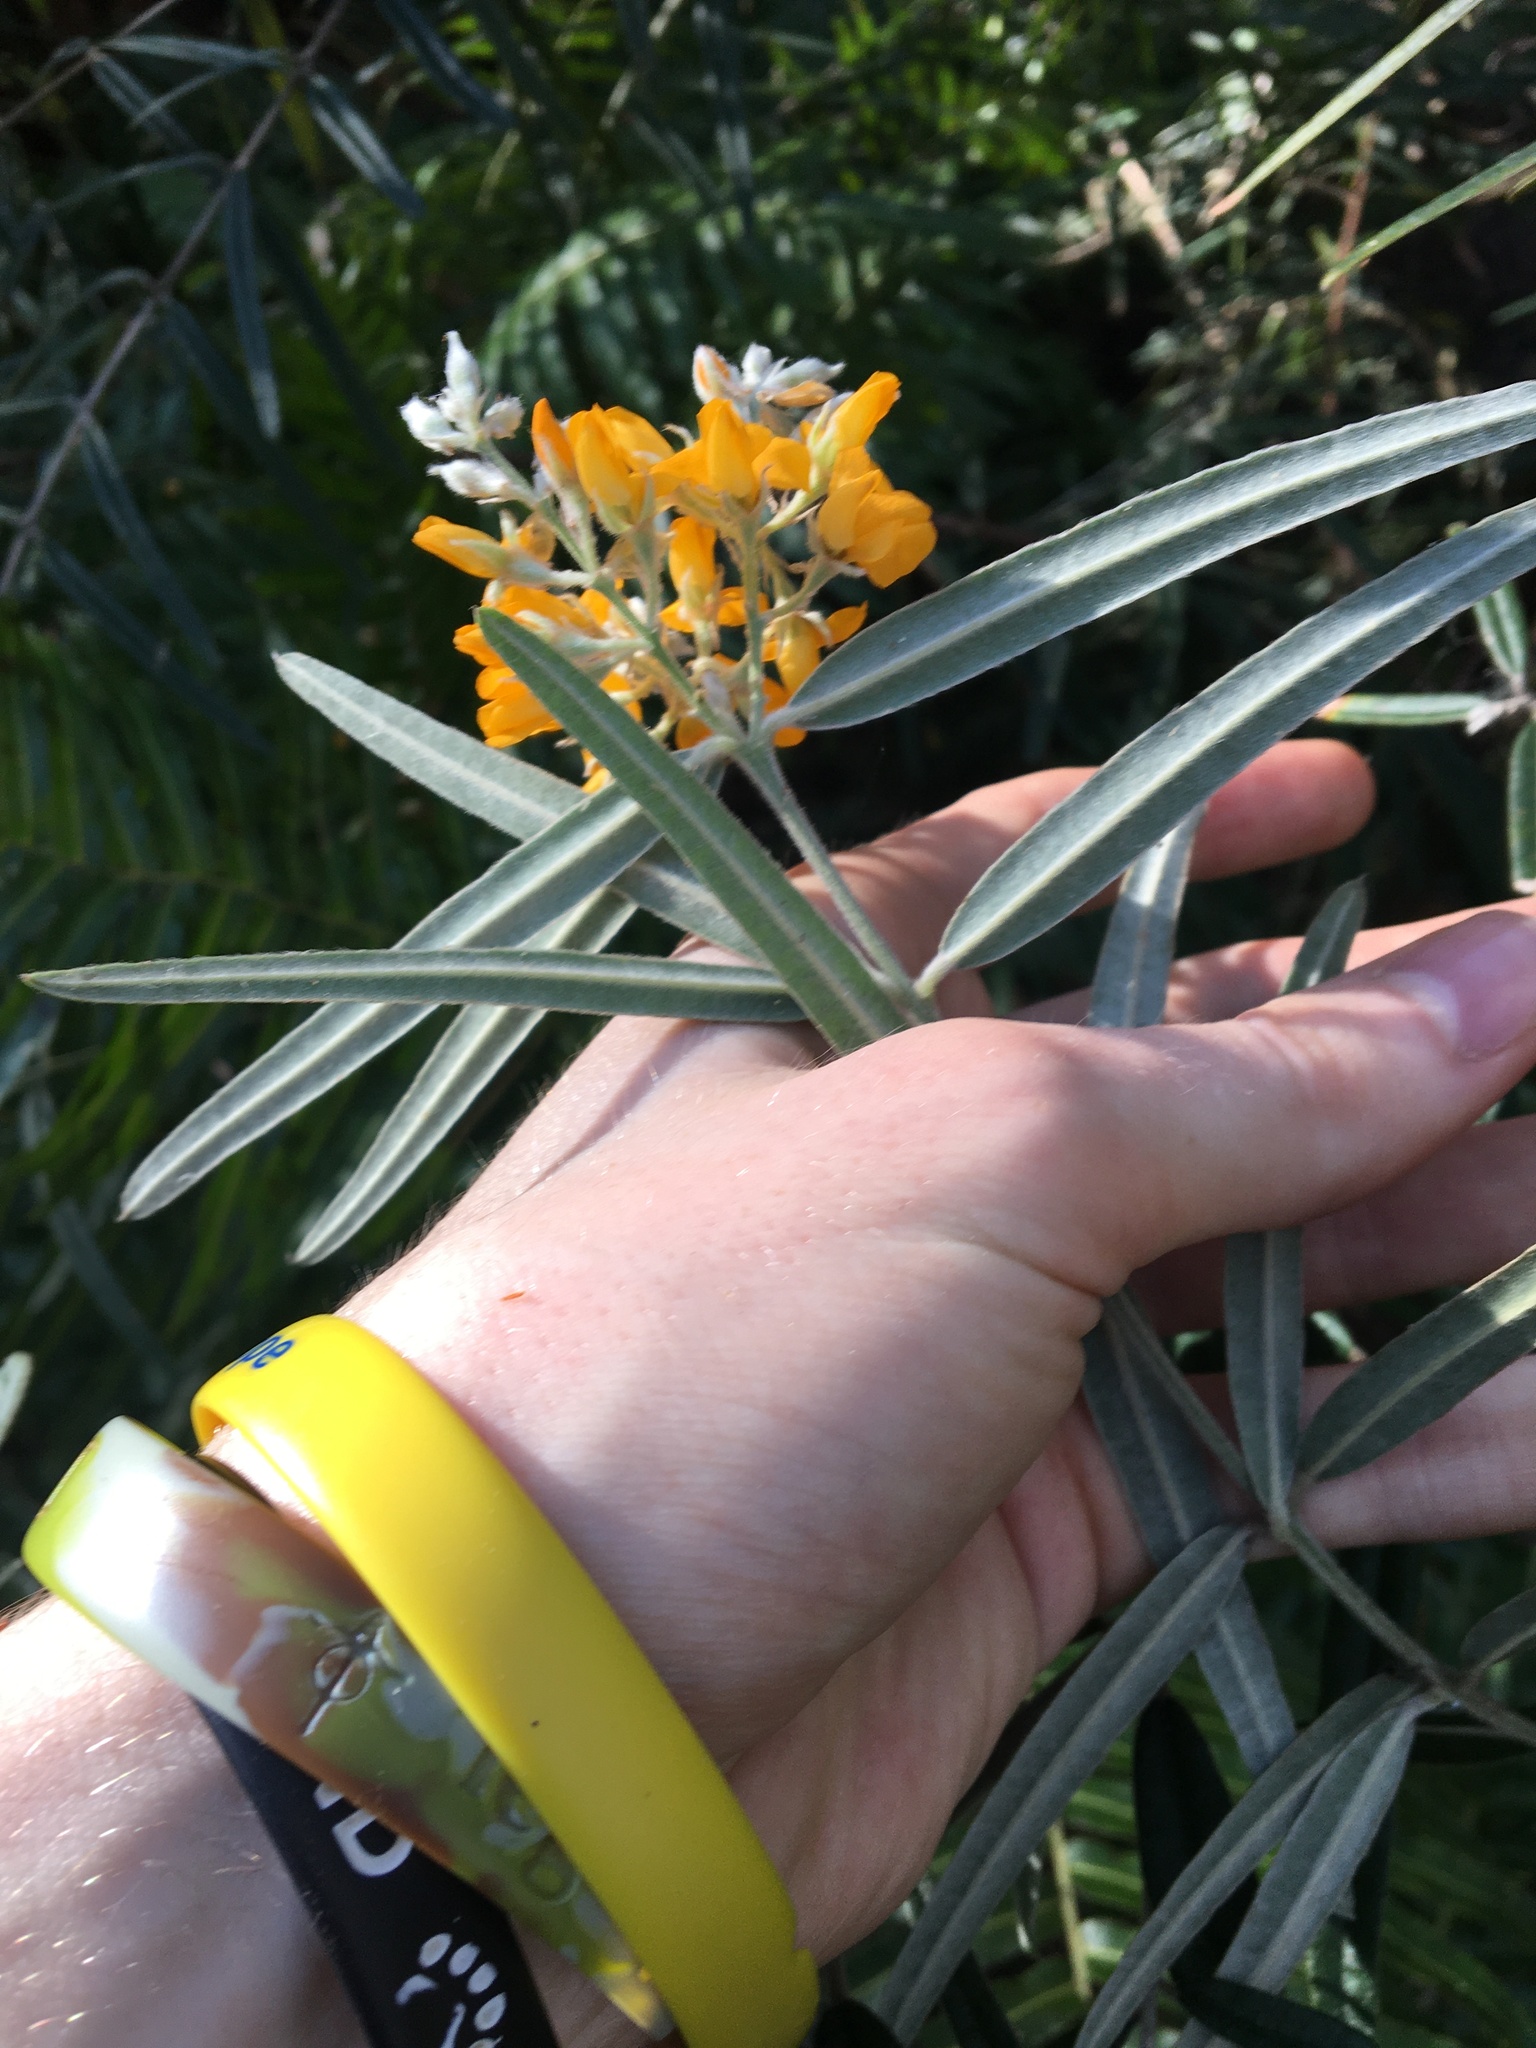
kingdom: Plantae
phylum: Tracheophyta
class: Magnoliopsida
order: Fabales
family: Fabaceae
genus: Oxylobium
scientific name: Oxylobium robustum
